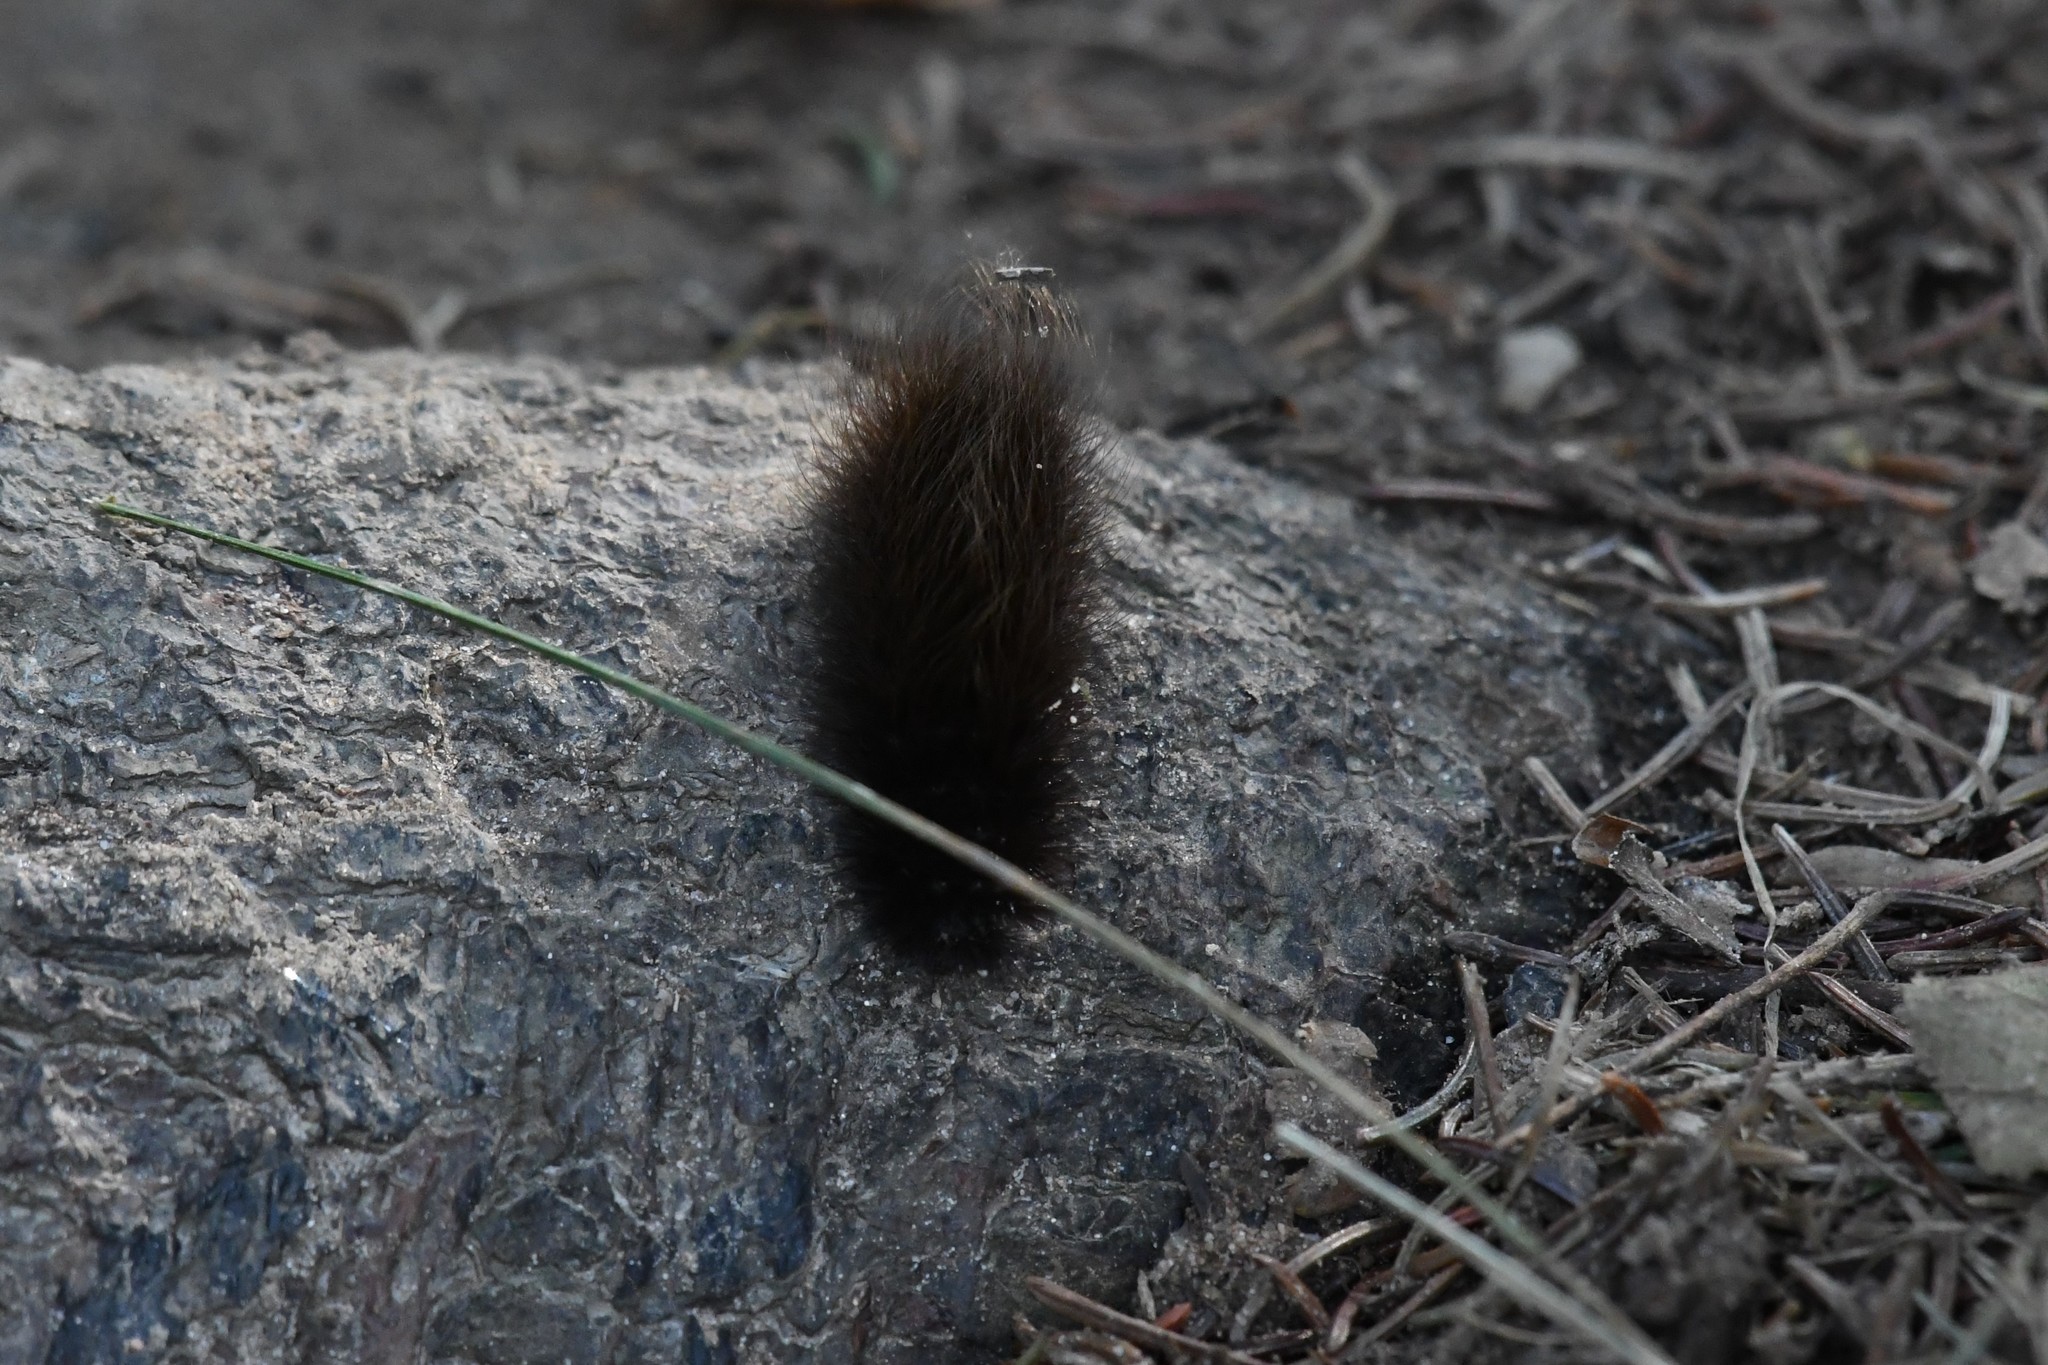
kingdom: Animalia
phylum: Arthropoda
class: Insecta
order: Lepidoptera
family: Erebidae
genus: Arctia
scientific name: Arctia parthenos
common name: St. lawrence tiger moth
